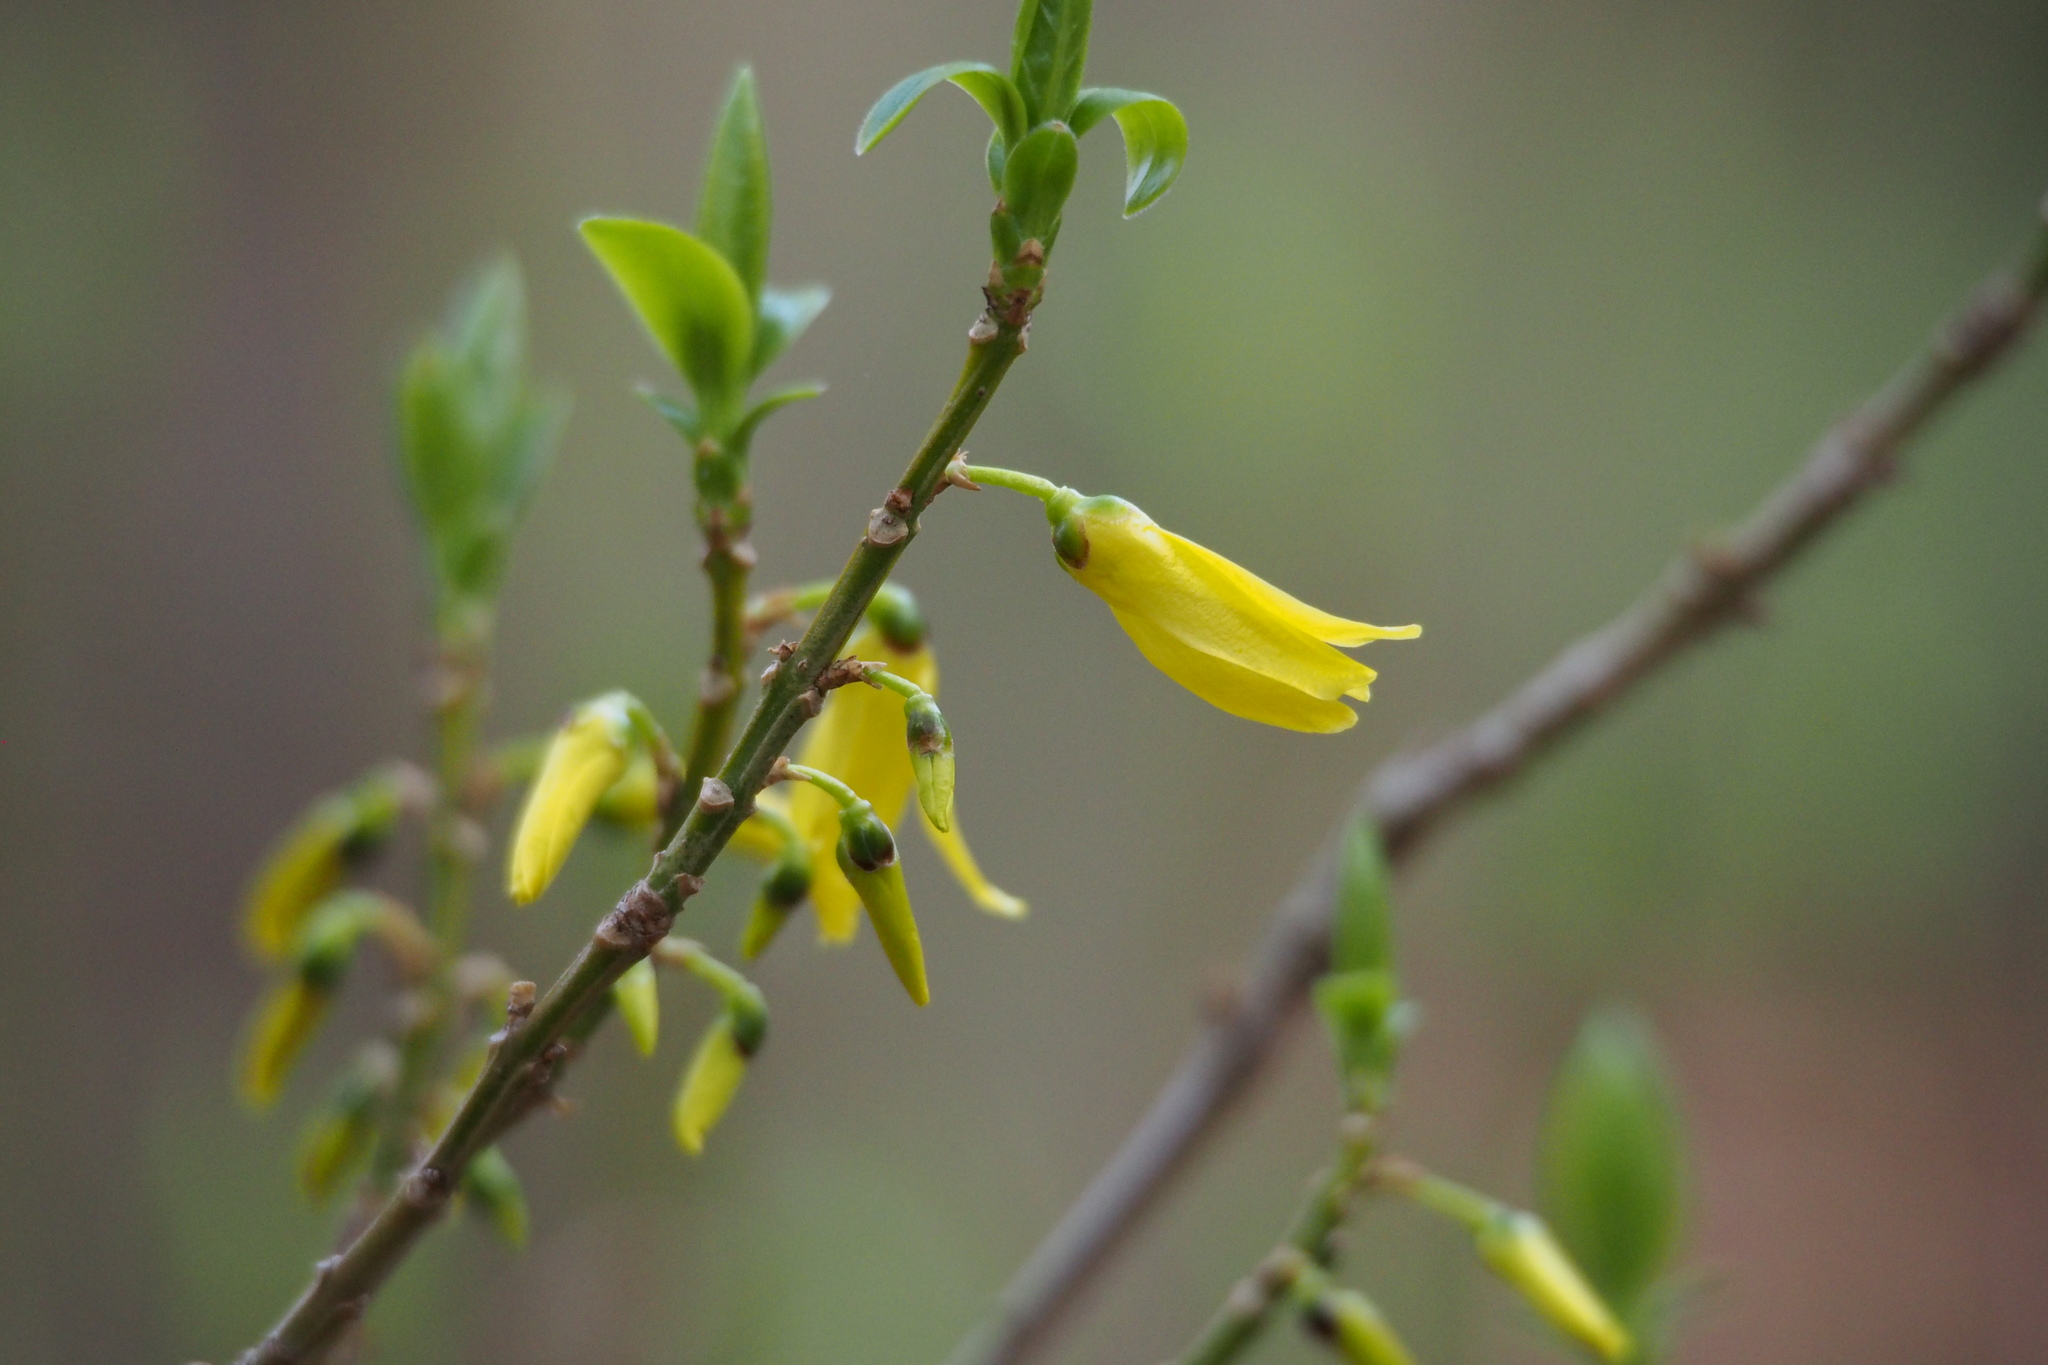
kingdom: Plantae
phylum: Tracheophyta
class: Magnoliopsida
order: Lamiales
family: Oleaceae
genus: Forsythia
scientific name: Forsythia suspensa
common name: Weeping forsythia
